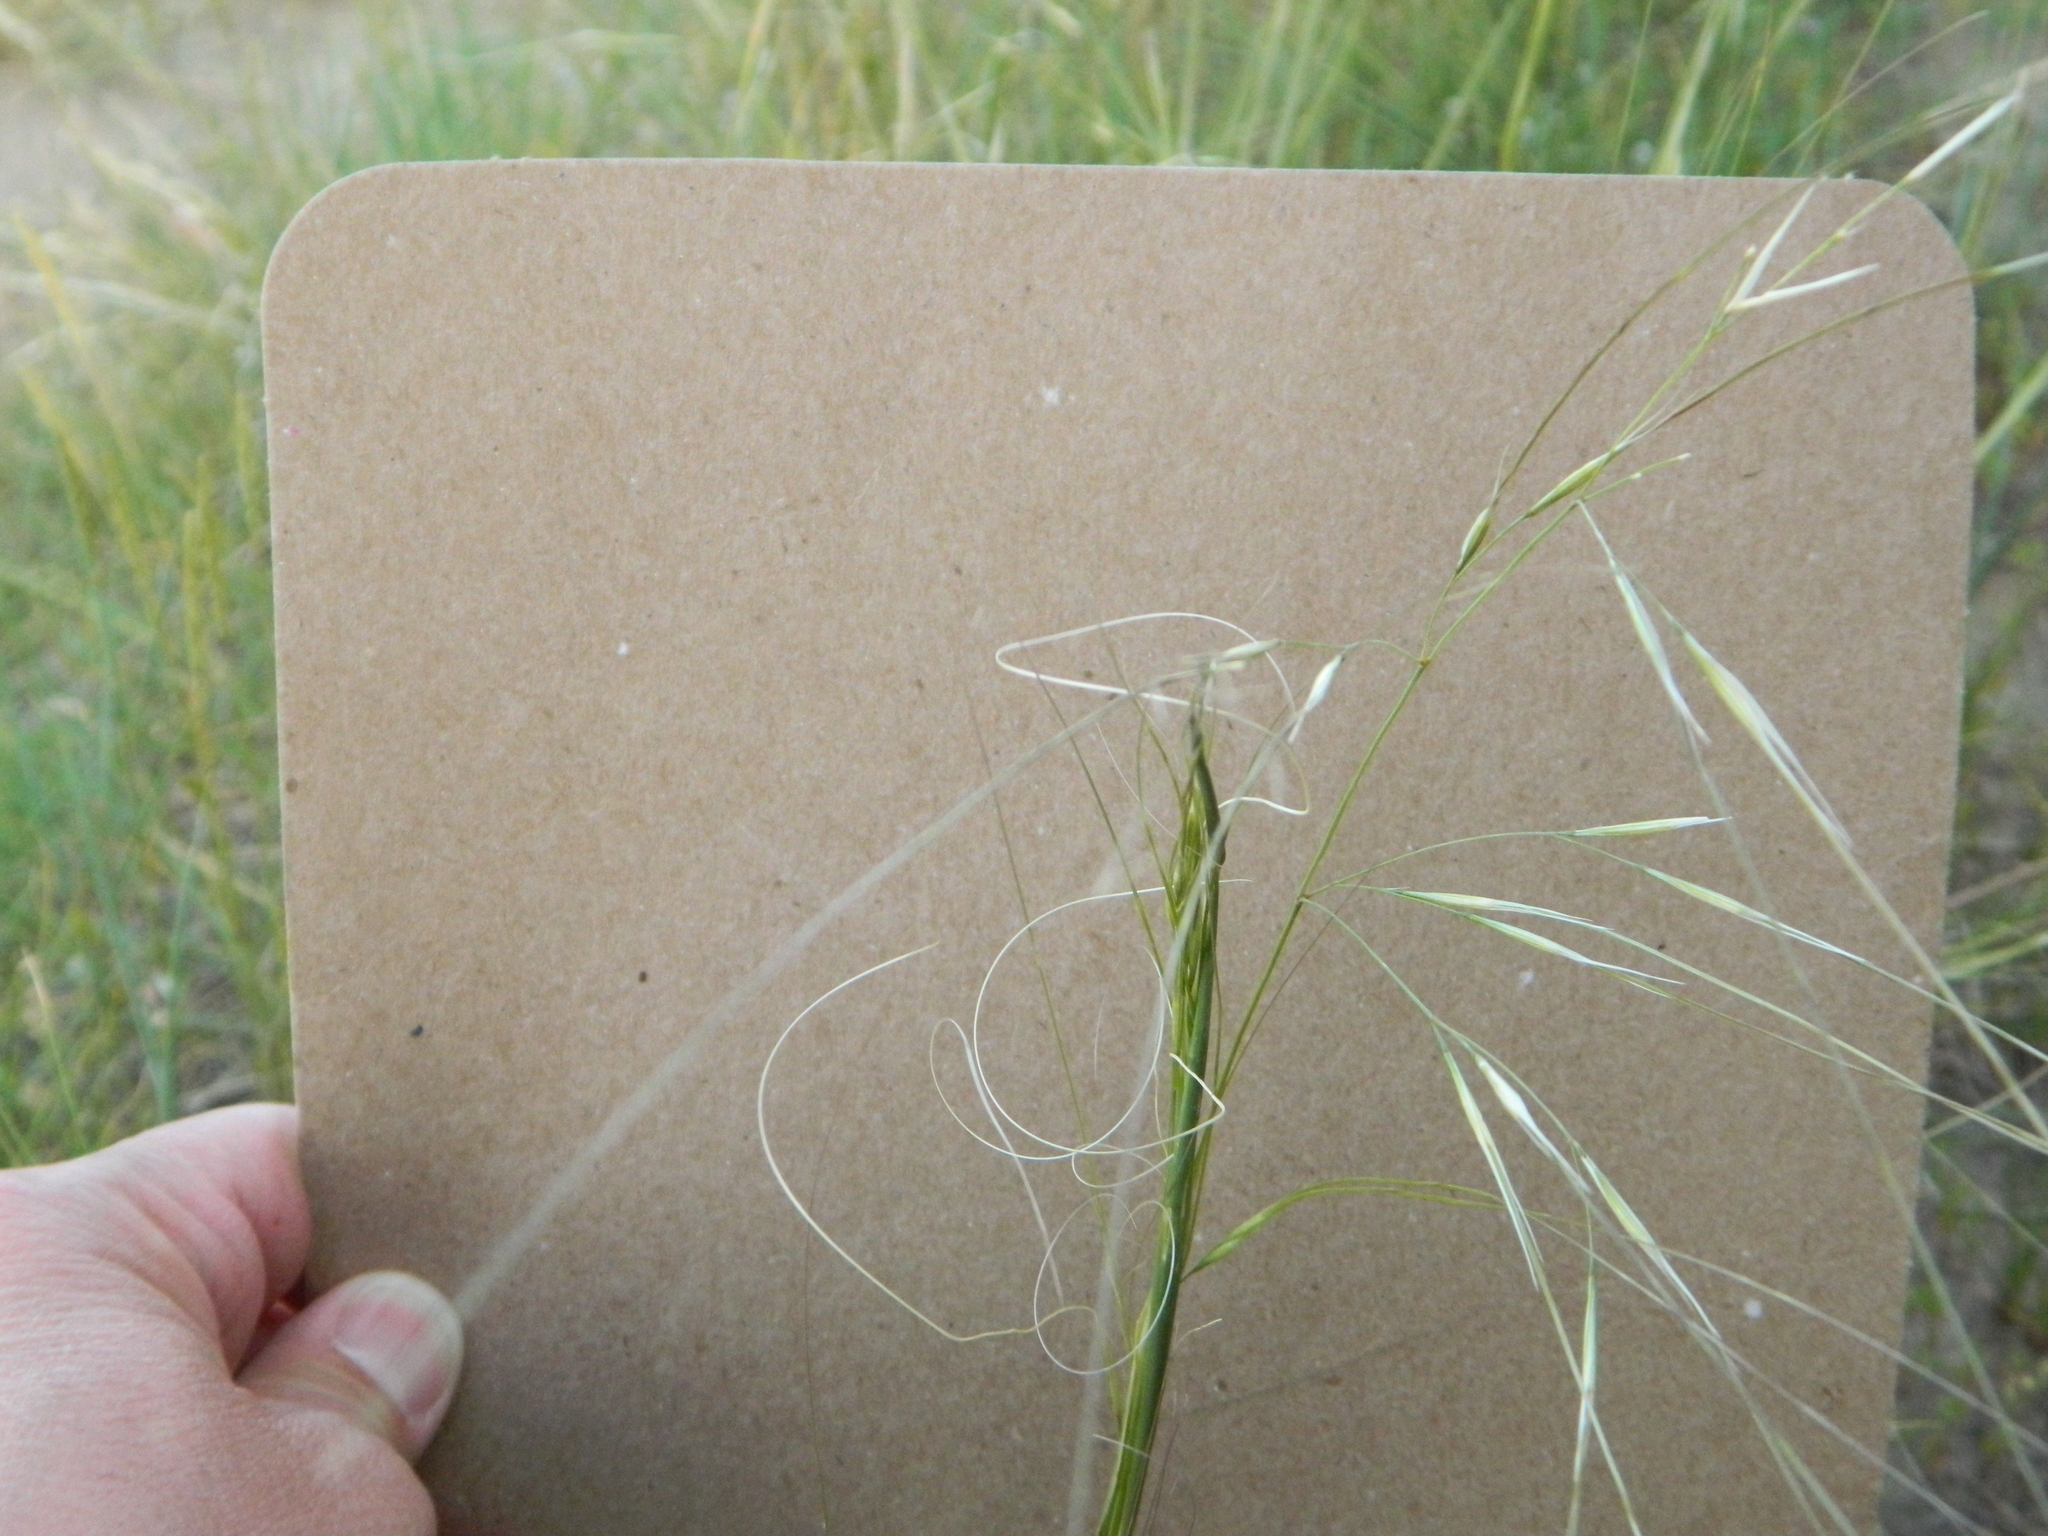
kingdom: Plantae
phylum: Tracheophyta
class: Liliopsida
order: Poales
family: Poaceae
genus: Hesperostipa
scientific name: Hesperostipa comata
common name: Needle-and-thread grass
